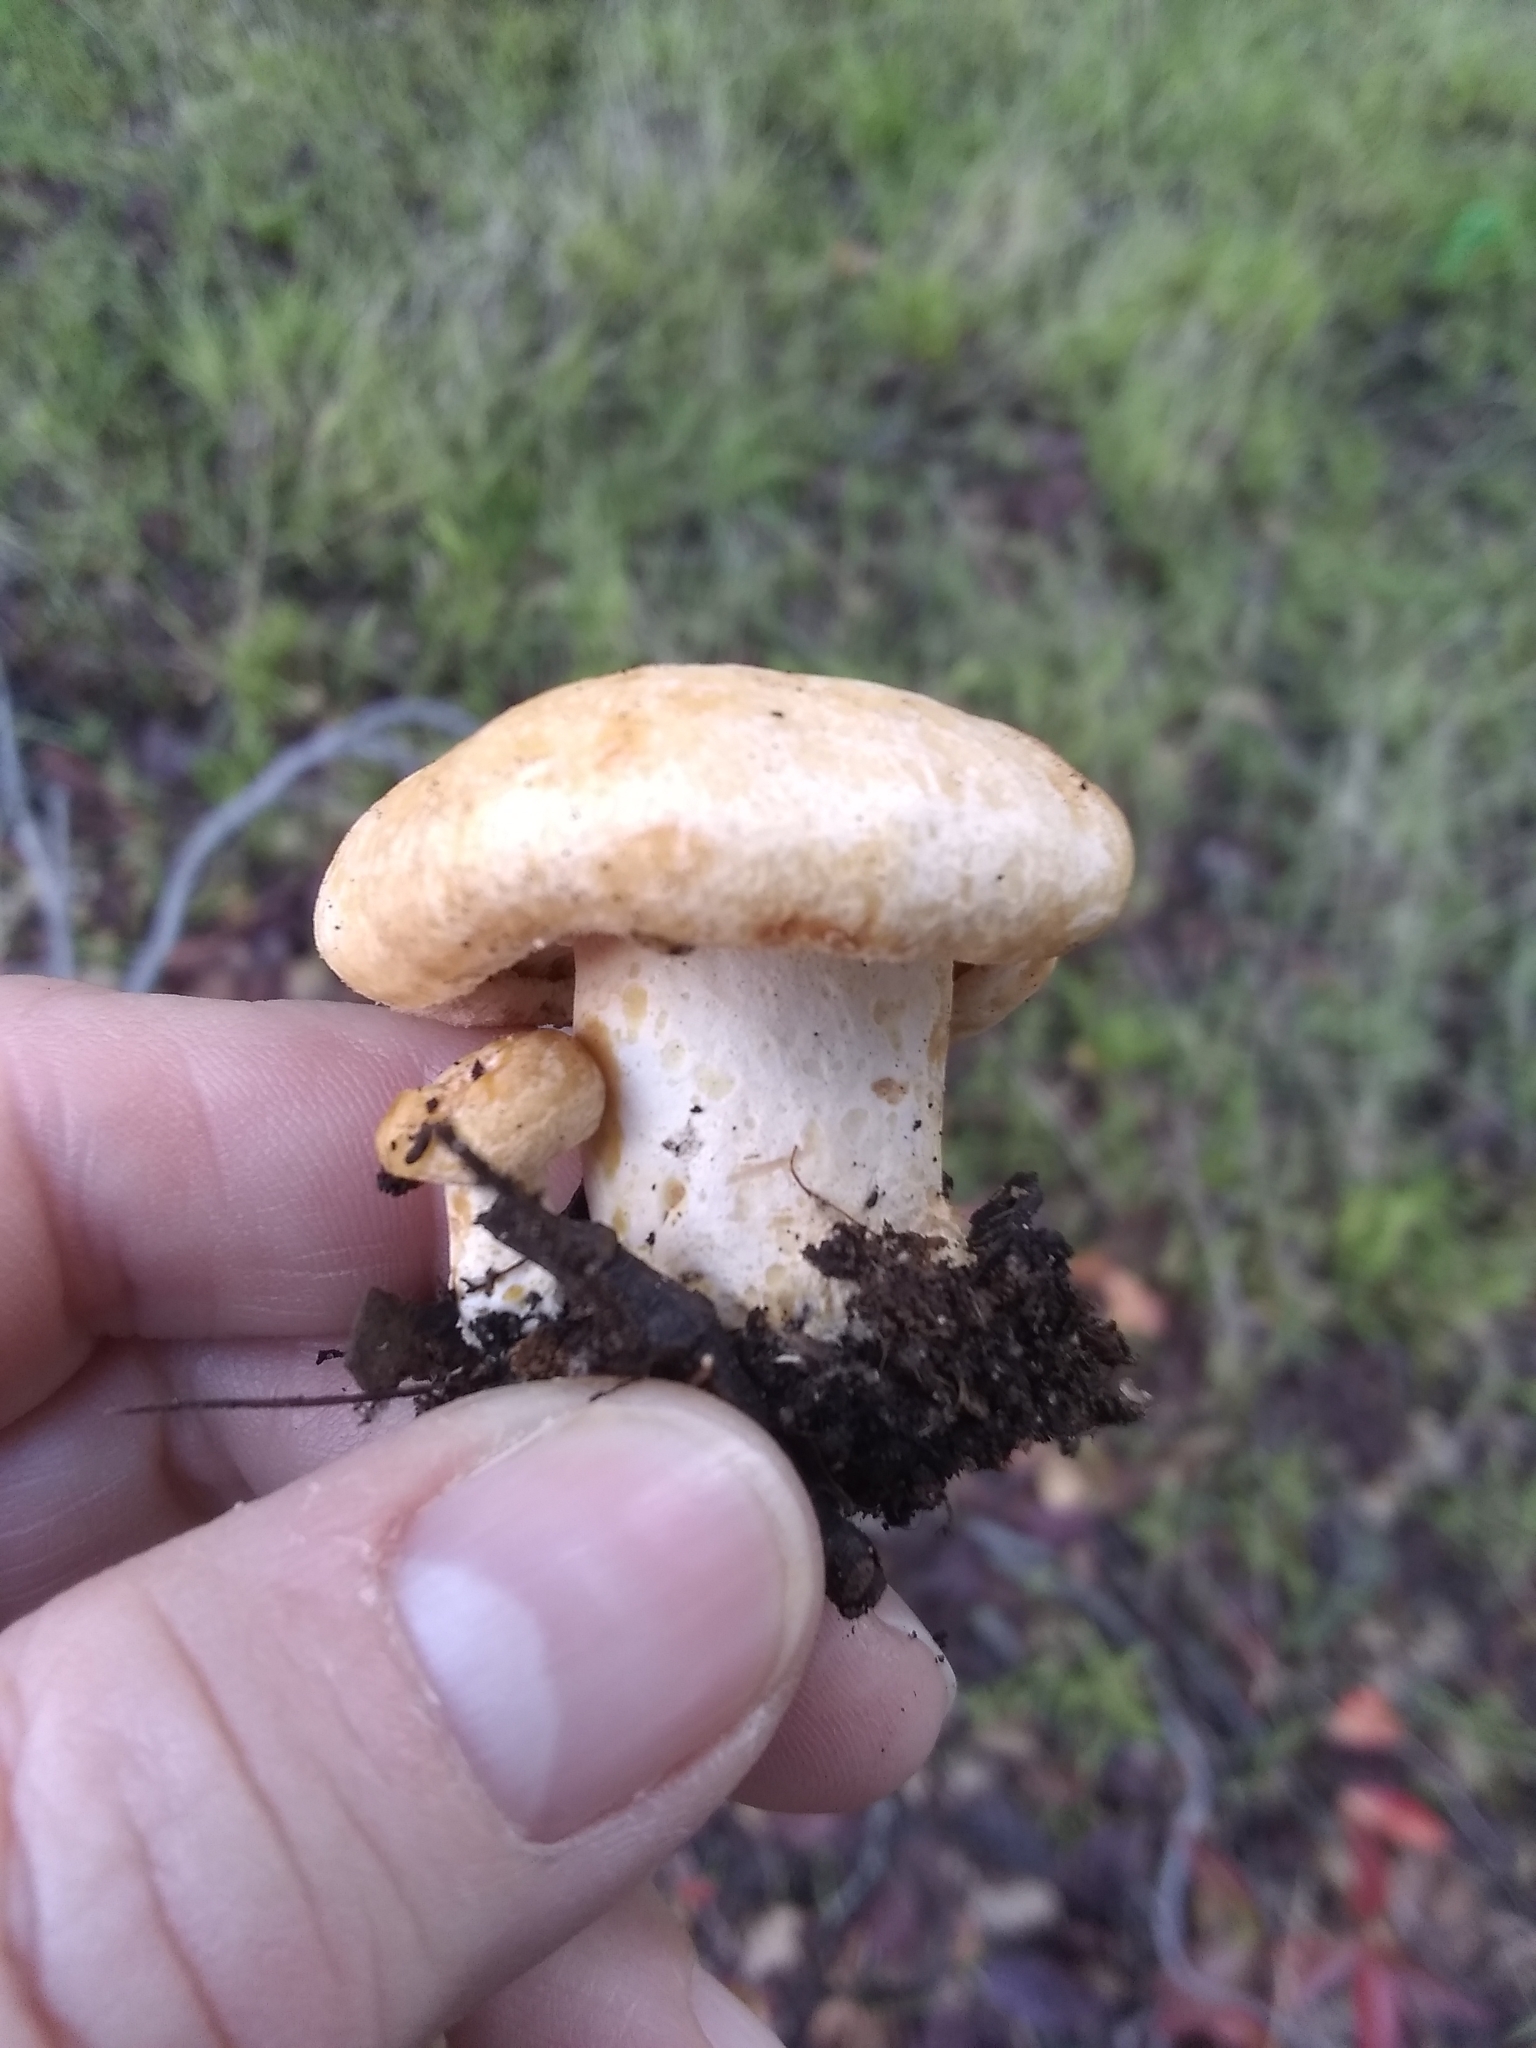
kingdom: Fungi
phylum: Basidiomycota
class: Agaricomycetes
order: Russulales
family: Russulaceae
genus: Lactarius
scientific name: Lactarius alnicola
